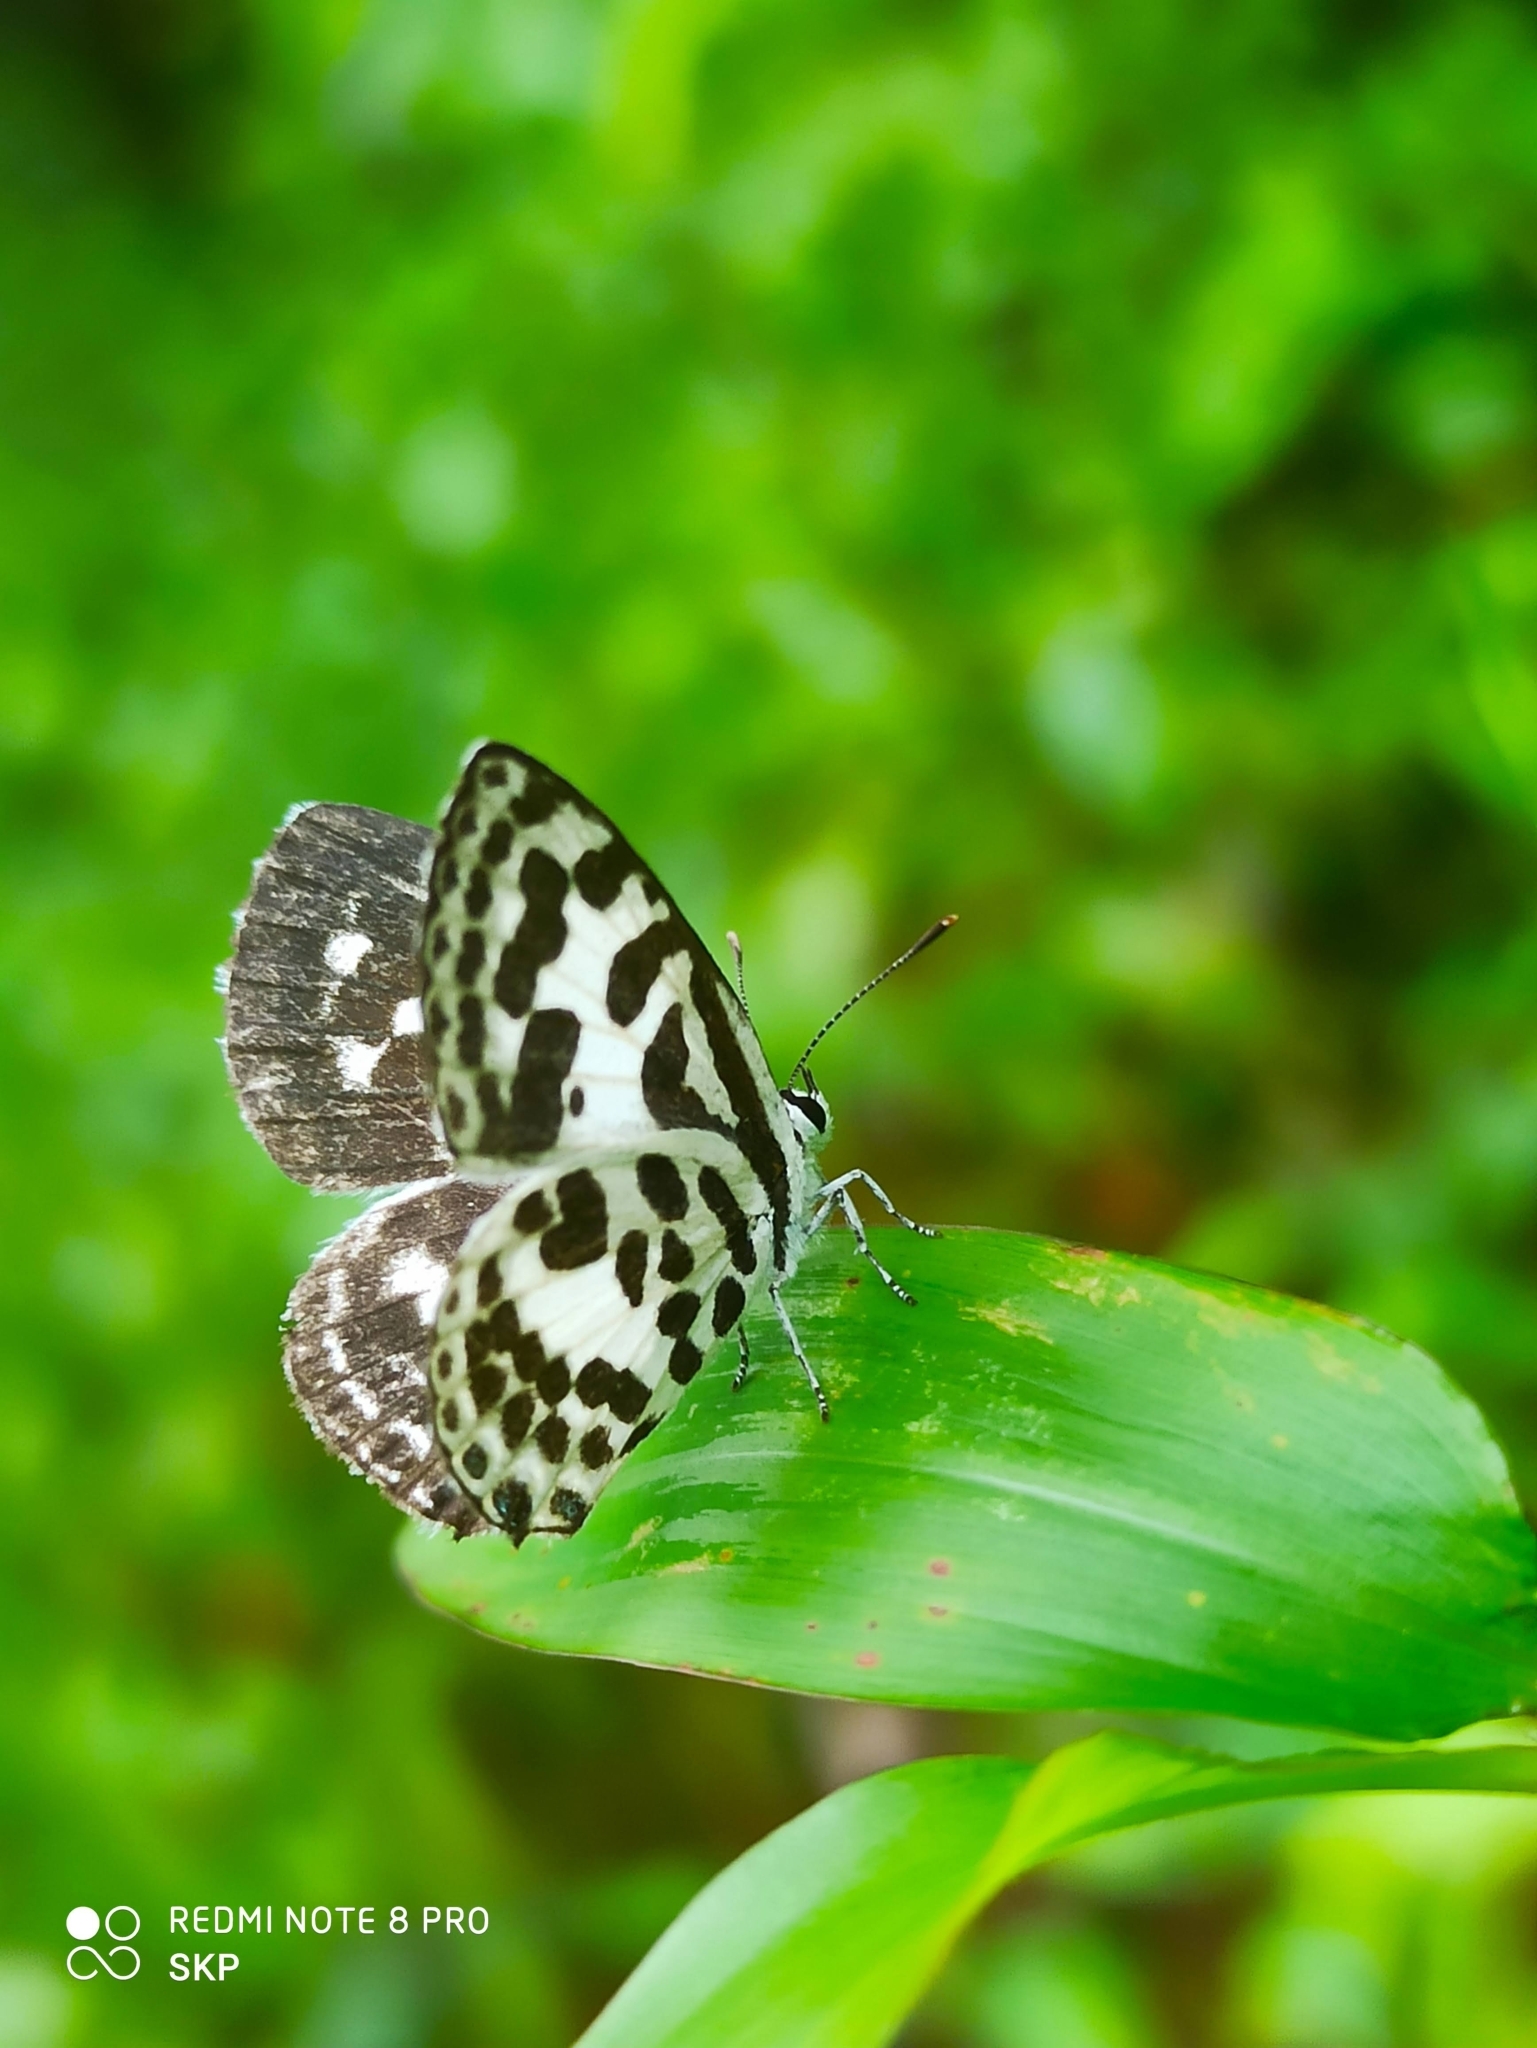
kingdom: Animalia
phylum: Arthropoda
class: Insecta
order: Lepidoptera
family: Lycaenidae
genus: Castalius
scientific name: Castalius rosimon
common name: Common pierrot
